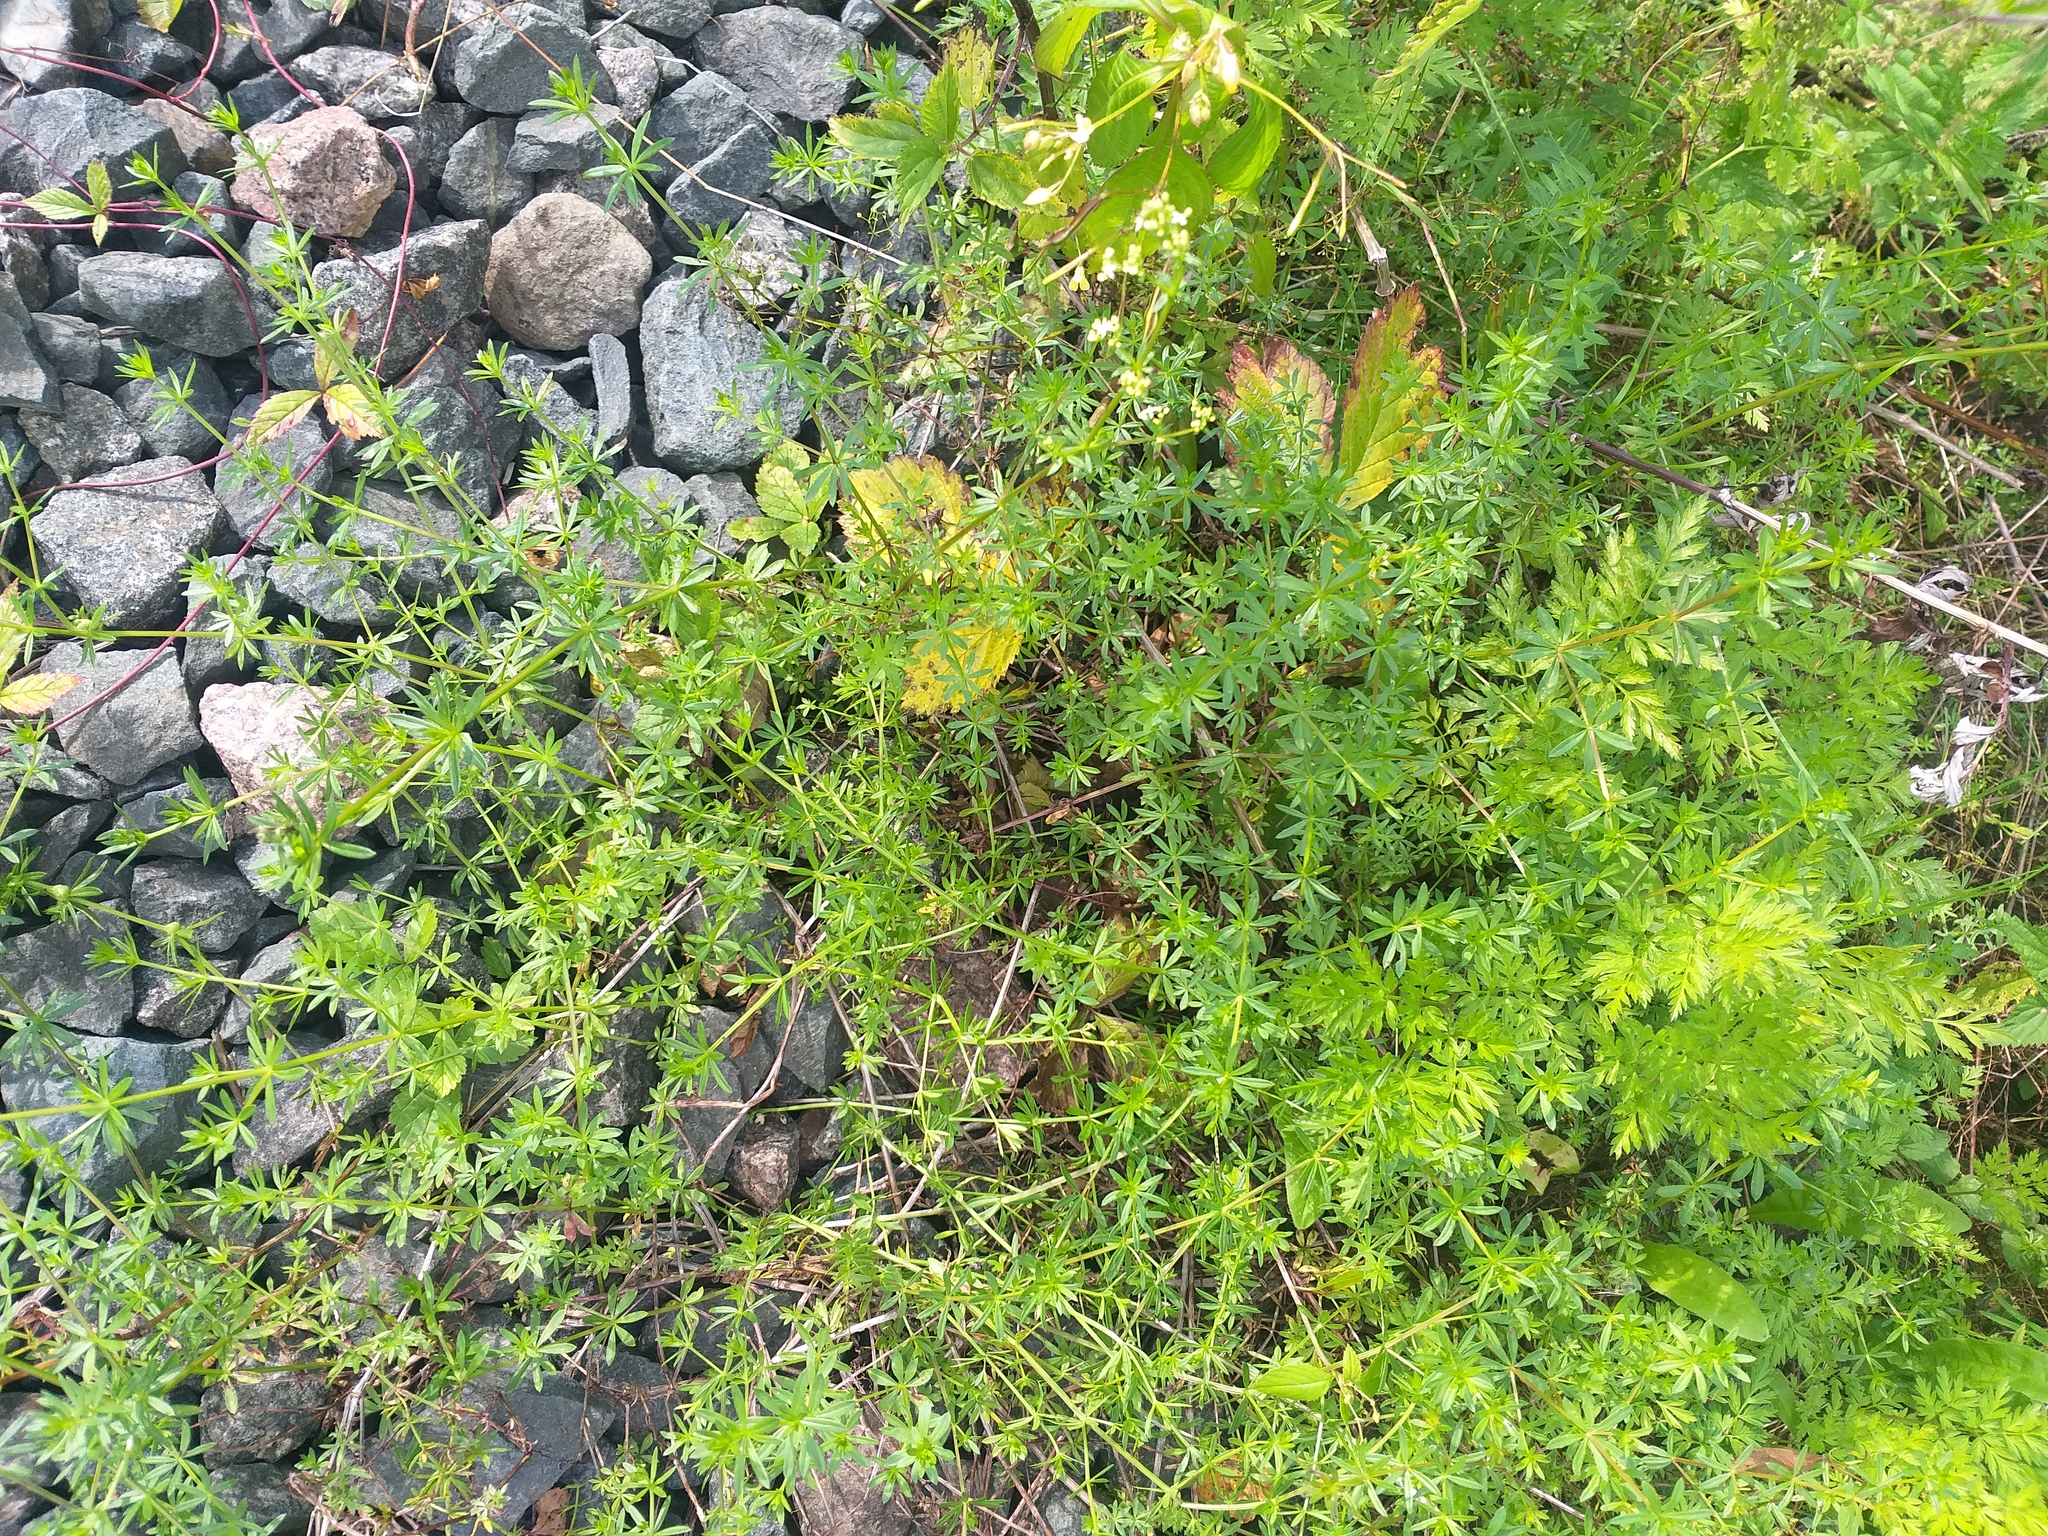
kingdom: Plantae
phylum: Tracheophyta
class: Magnoliopsida
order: Gentianales
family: Rubiaceae
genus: Galium
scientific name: Galium mollugo
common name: Hedge bedstraw
